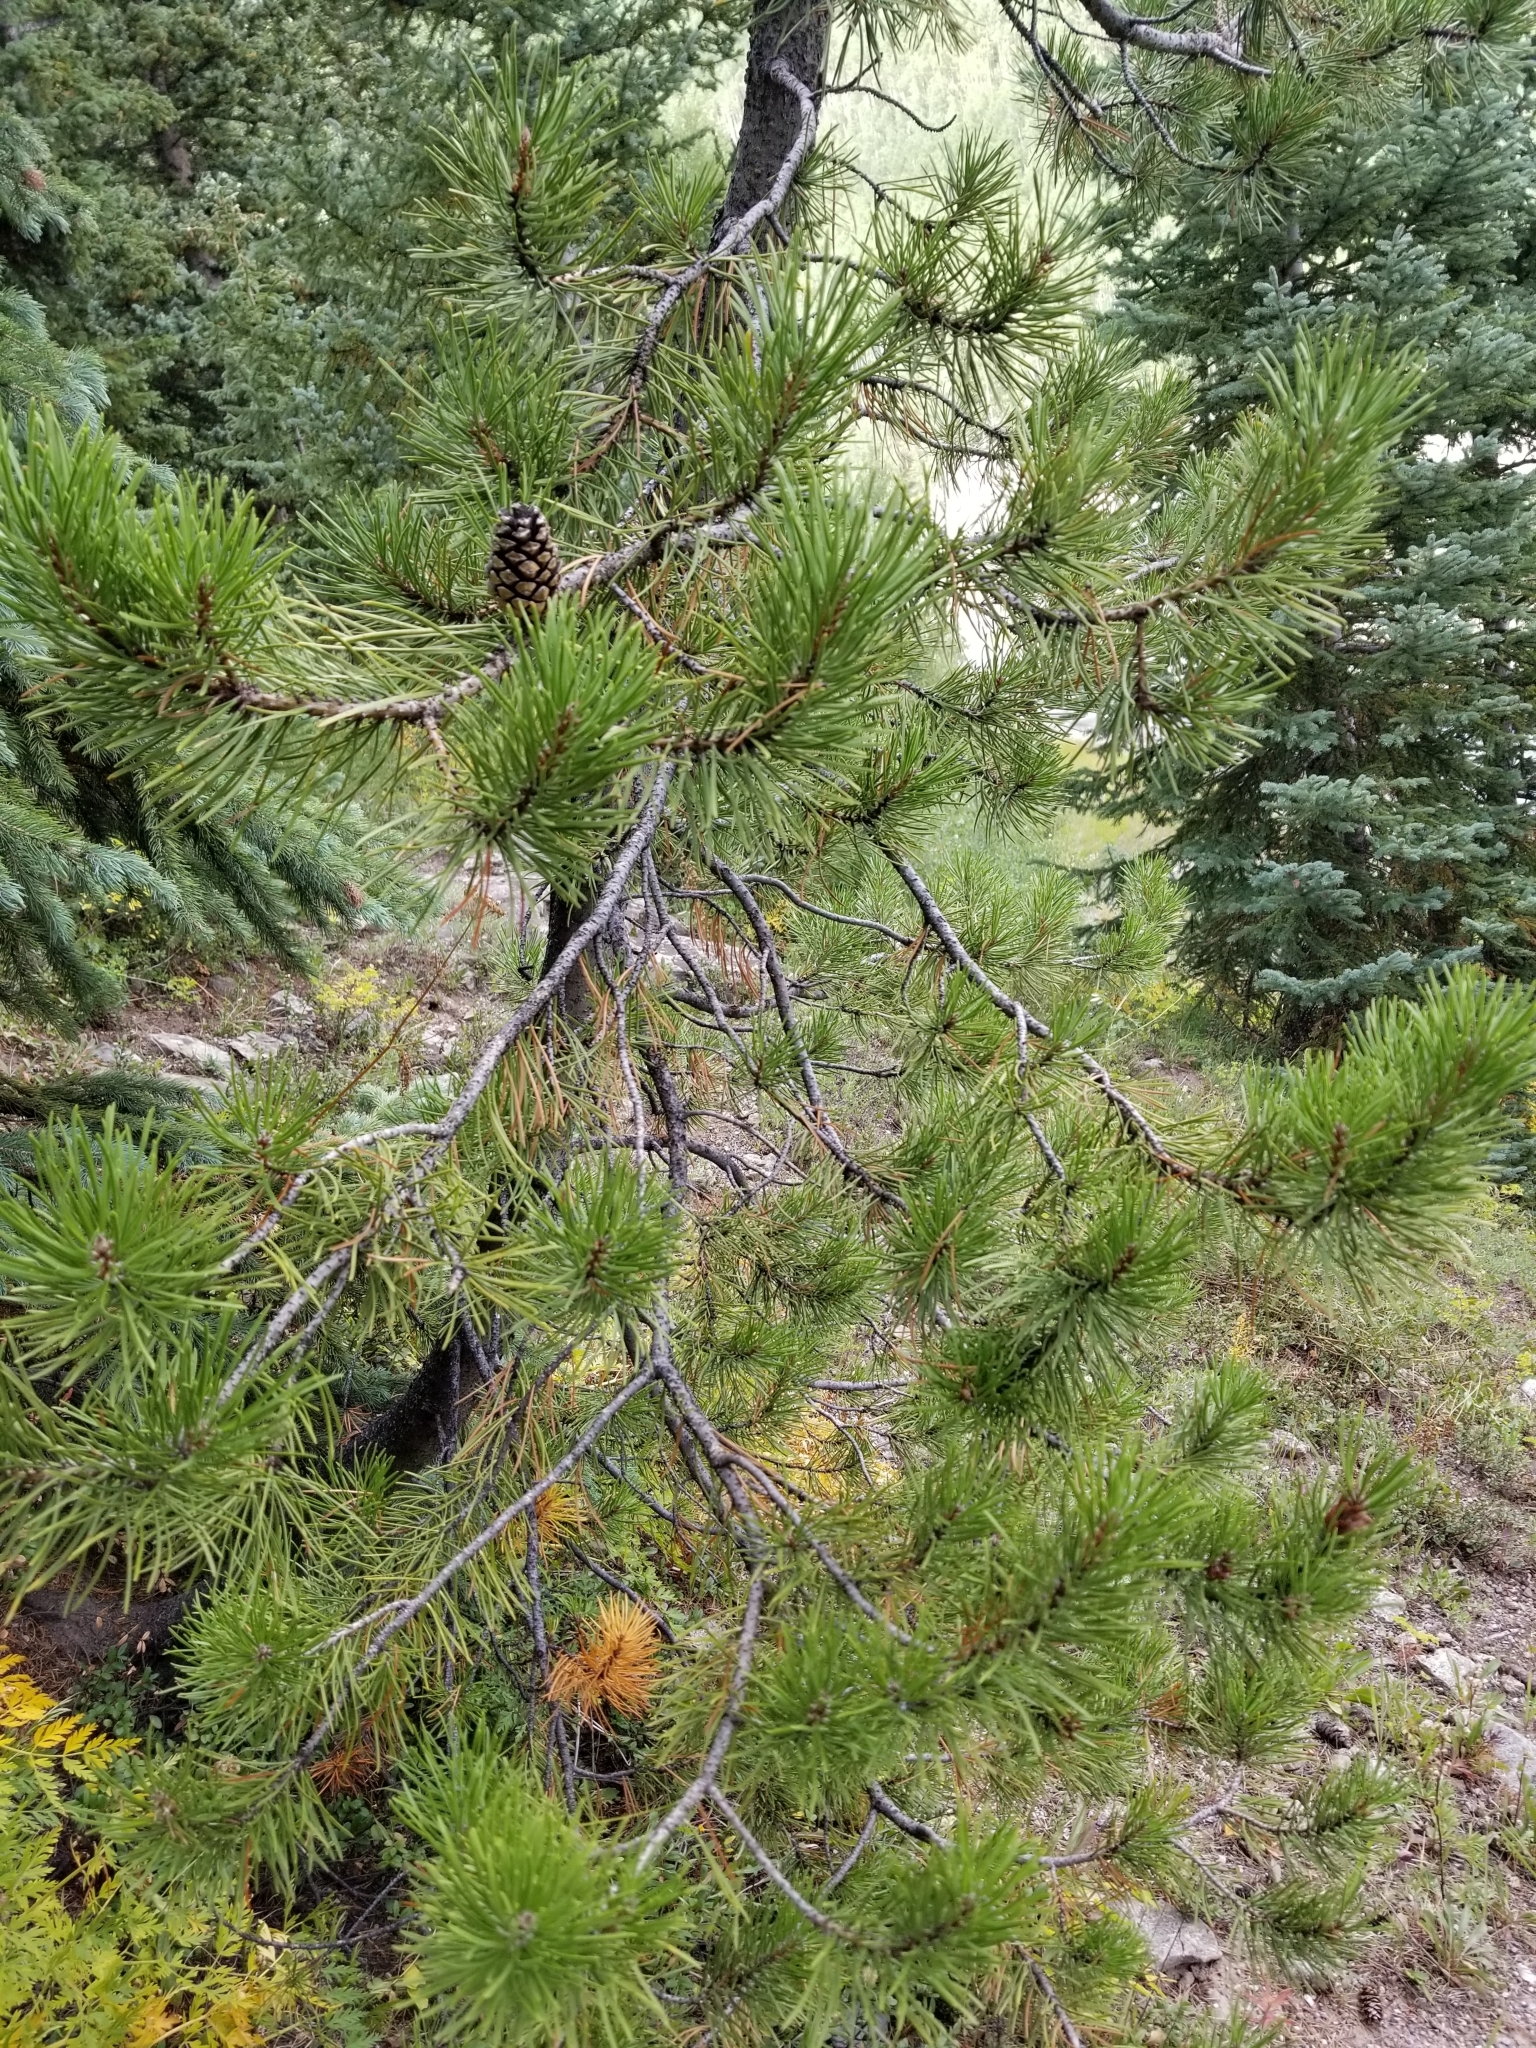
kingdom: Plantae
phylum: Tracheophyta
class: Pinopsida
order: Pinales
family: Pinaceae
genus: Pinus
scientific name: Pinus contorta
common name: Lodgepole pine
